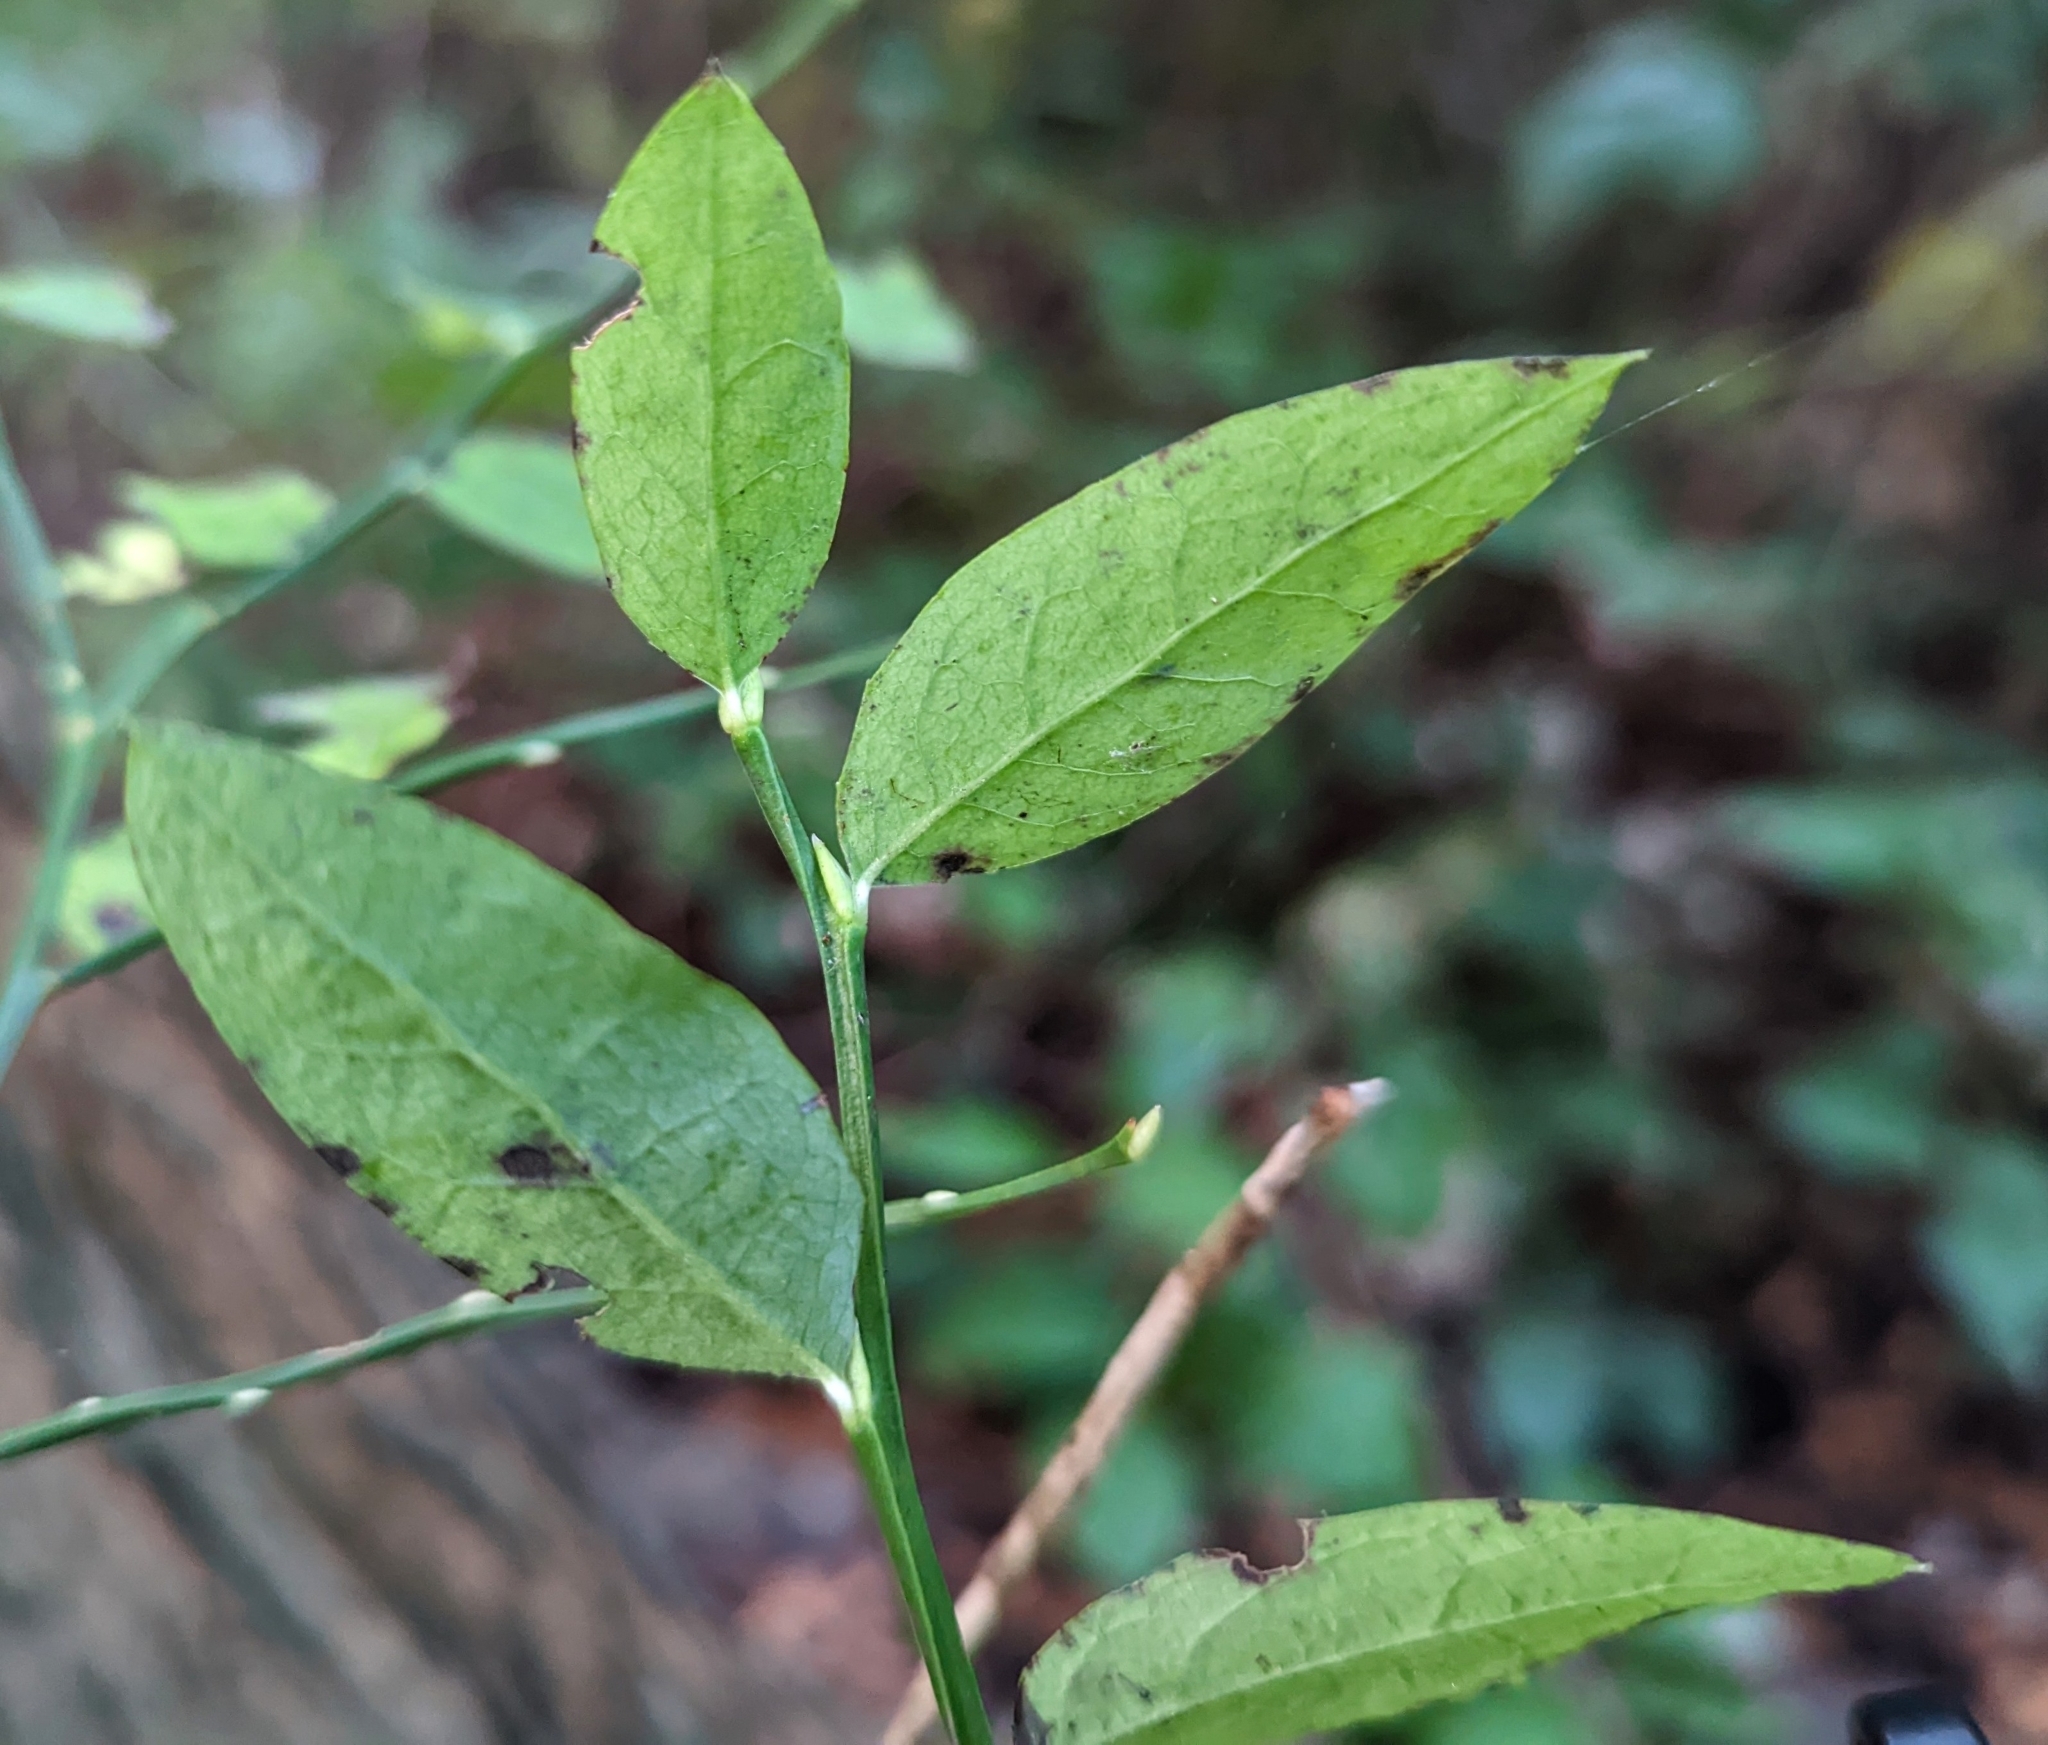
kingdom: Plantae
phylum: Tracheophyta
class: Magnoliopsida
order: Ericales
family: Ericaceae
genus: Vaccinium
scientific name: Vaccinium parvifolium
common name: Red-huckleberry
